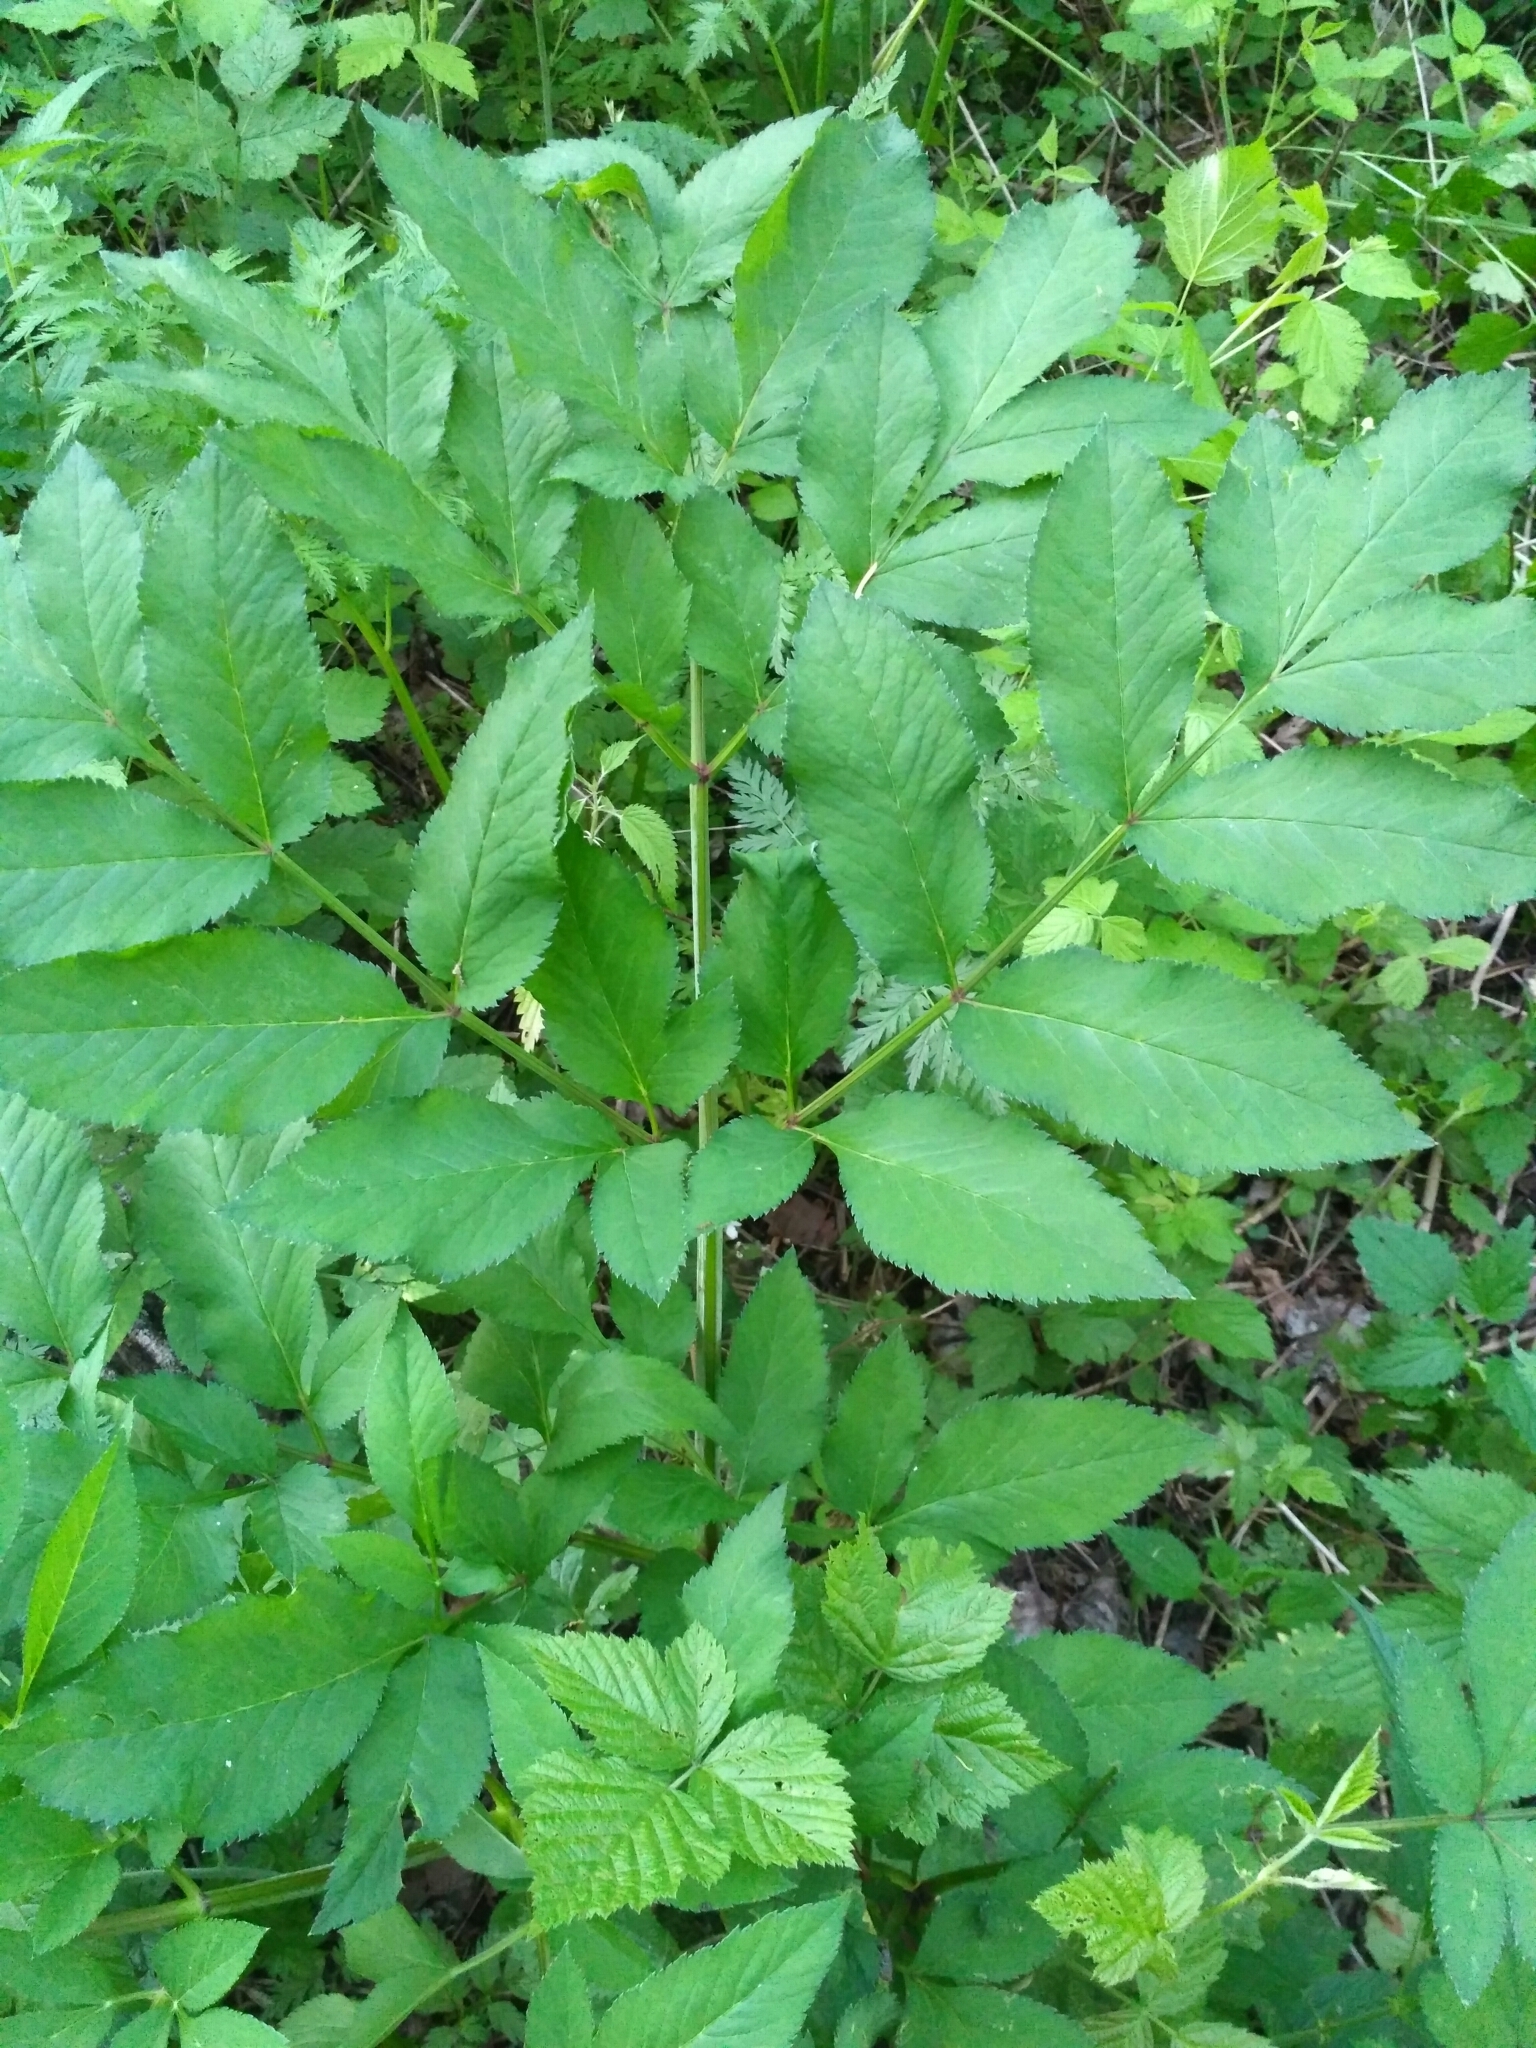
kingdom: Plantae
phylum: Tracheophyta
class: Magnoliopsida
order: Apiales
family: Apiaceae
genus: Angelica
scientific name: Angelica sylvestris
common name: Wild angelica
